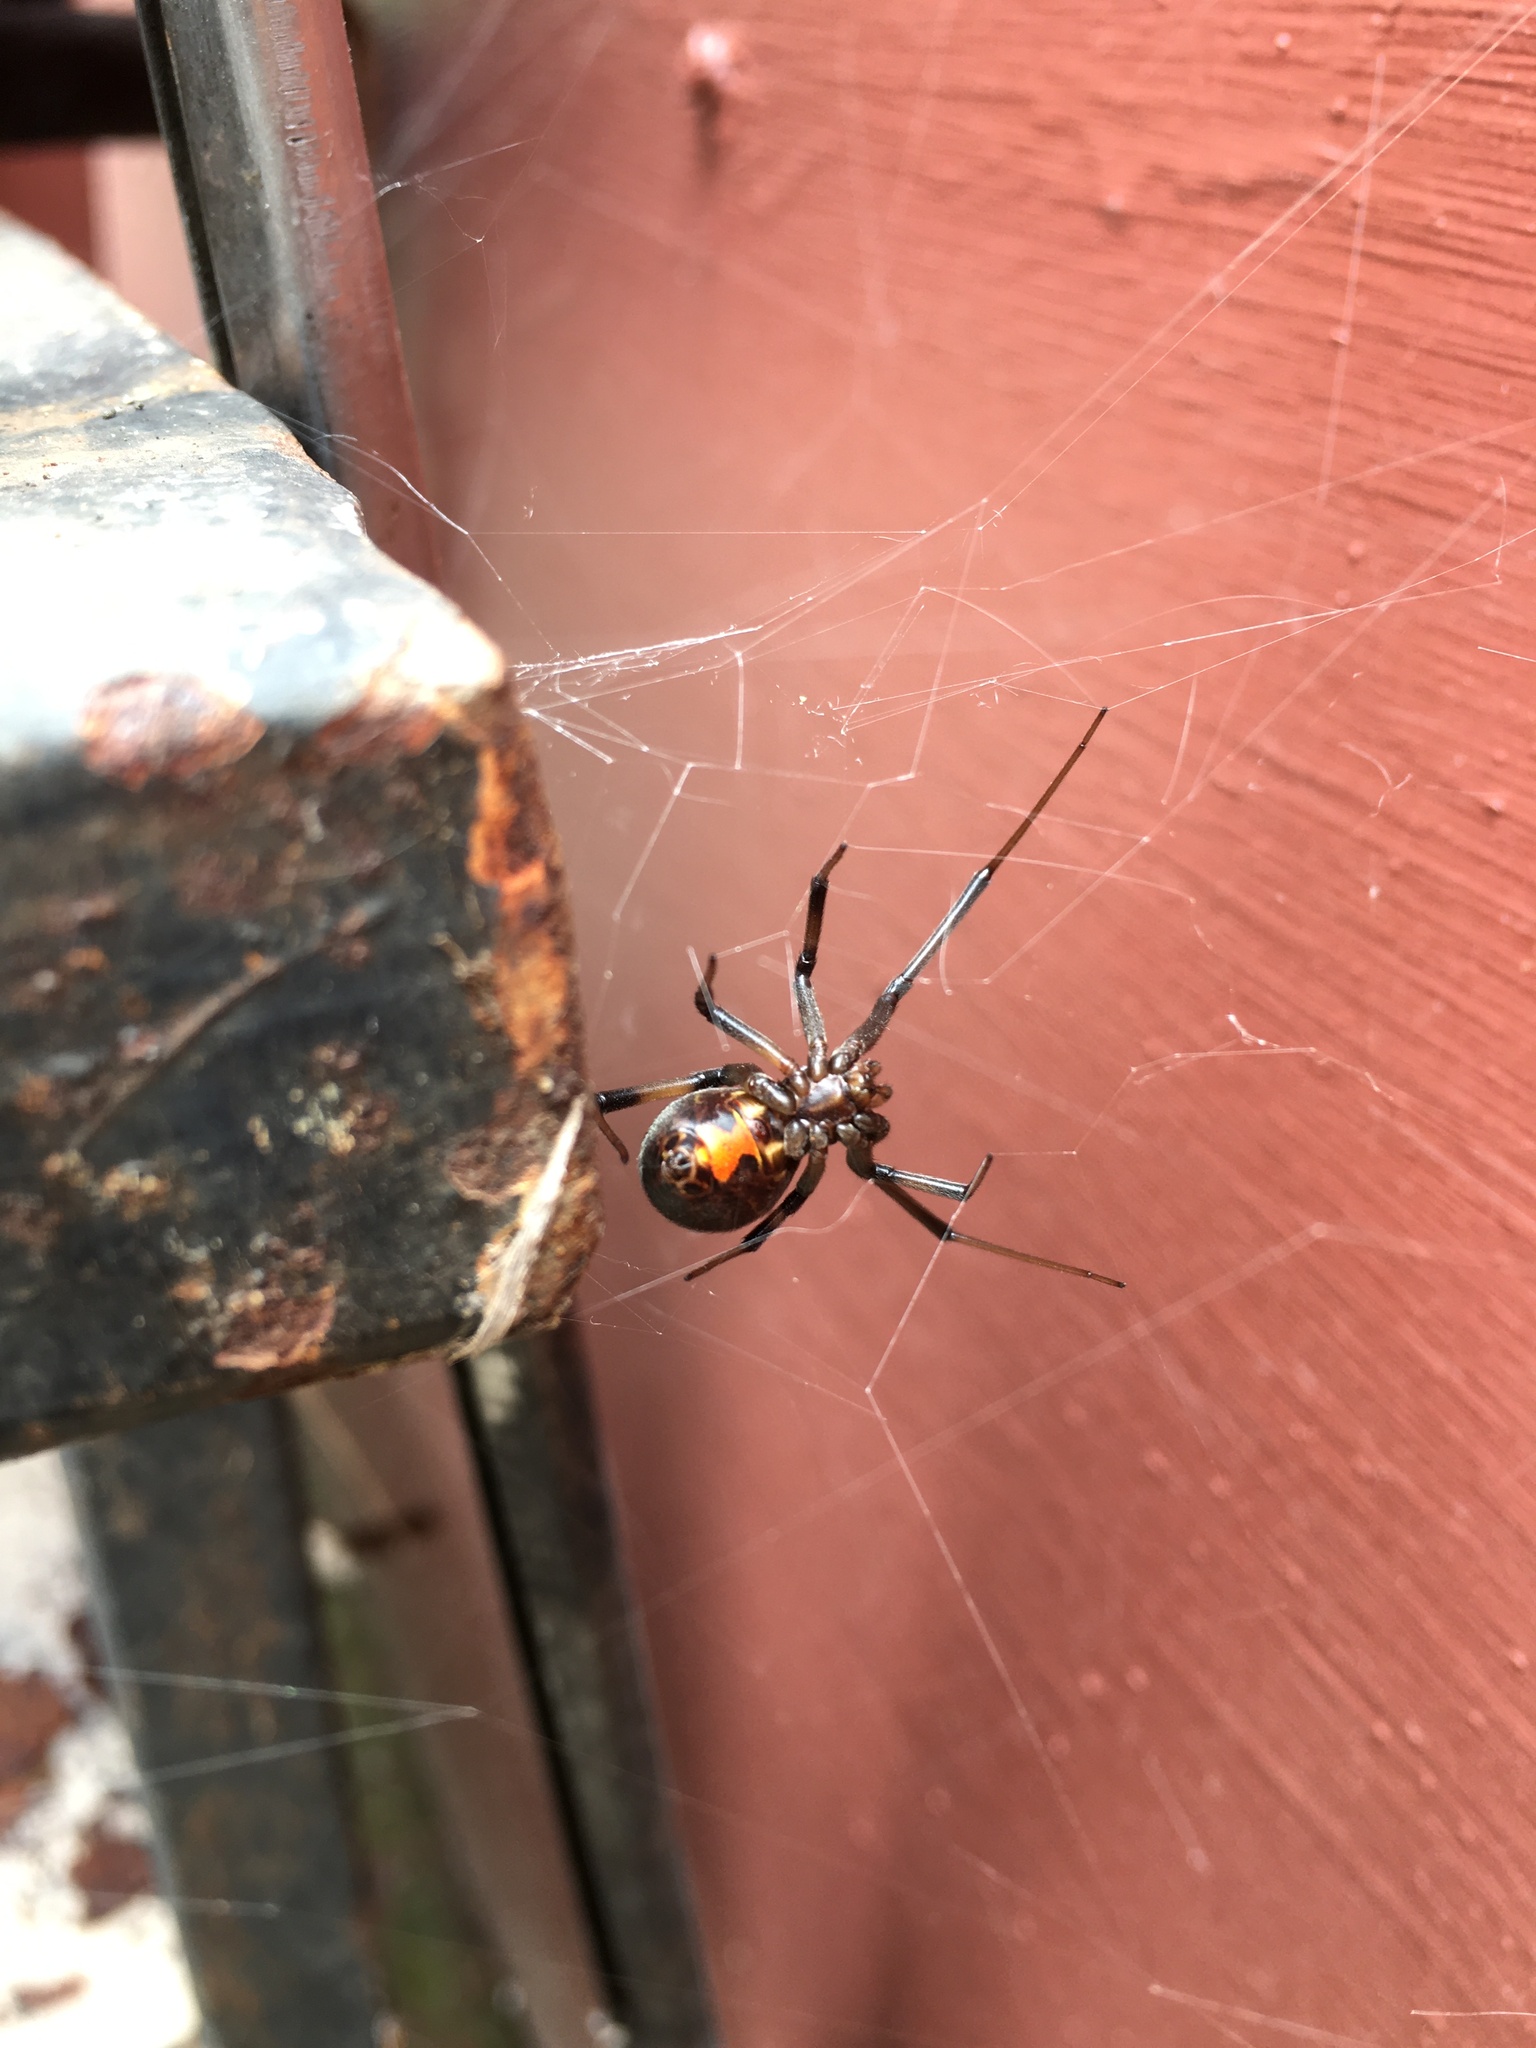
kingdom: Animalia
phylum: Arthropoda
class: Arachnida
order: Araneae
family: Theridiidae
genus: Latrodectus
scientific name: Latrodectus geometricus
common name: Brown widow spider
